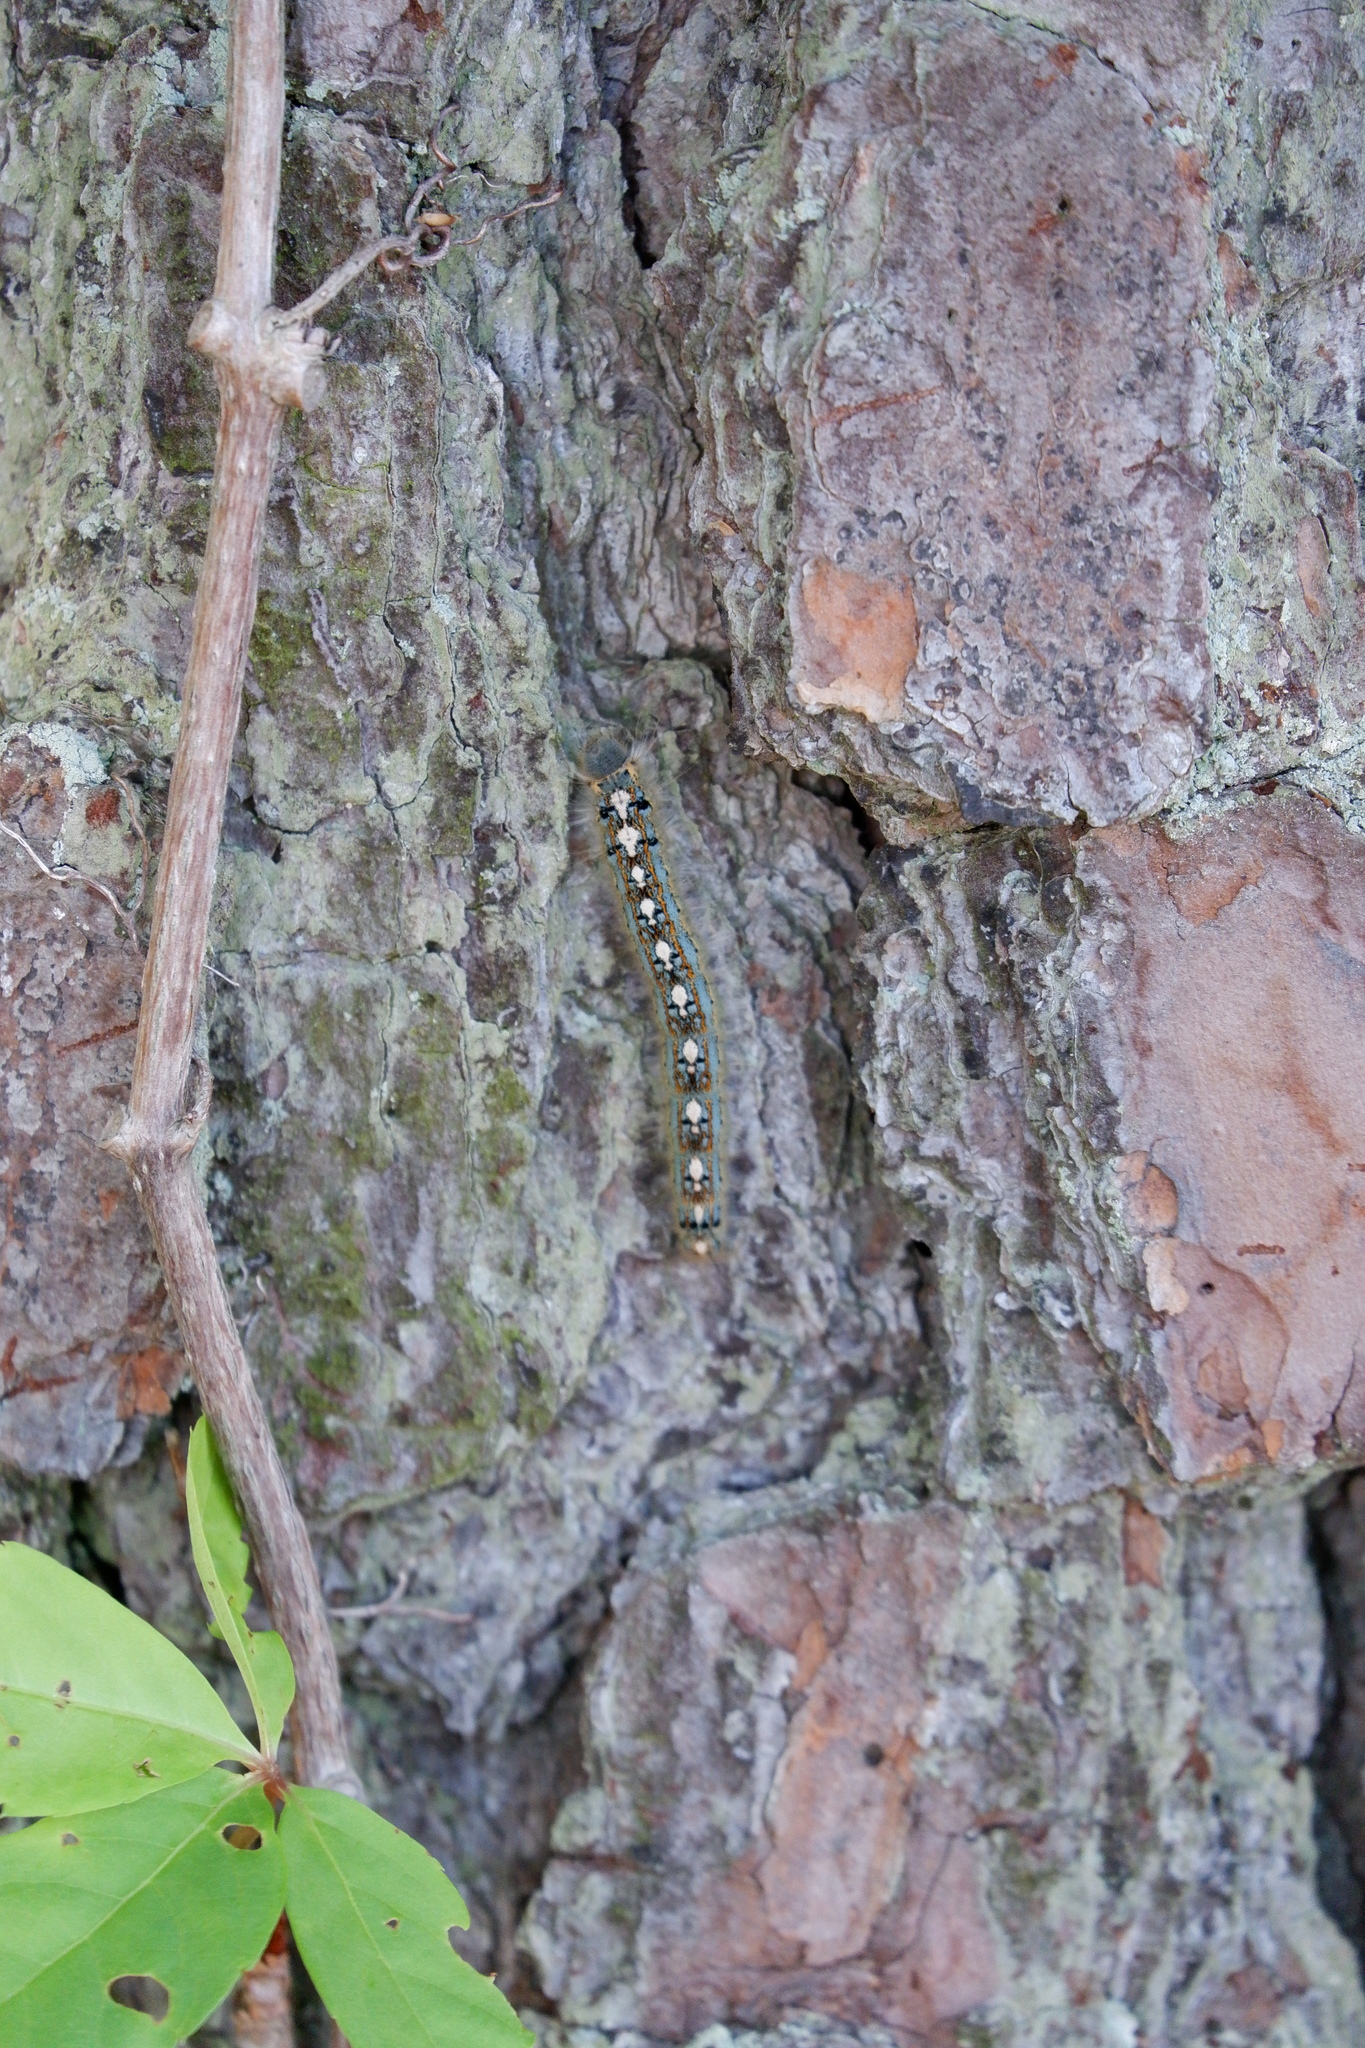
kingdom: Animalia
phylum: Arthropoda
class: Insecta
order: Lepidoptera
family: Lasiocampidae
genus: Malacosoma
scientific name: Malacosoma disstria
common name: Forest tent caterpillar
